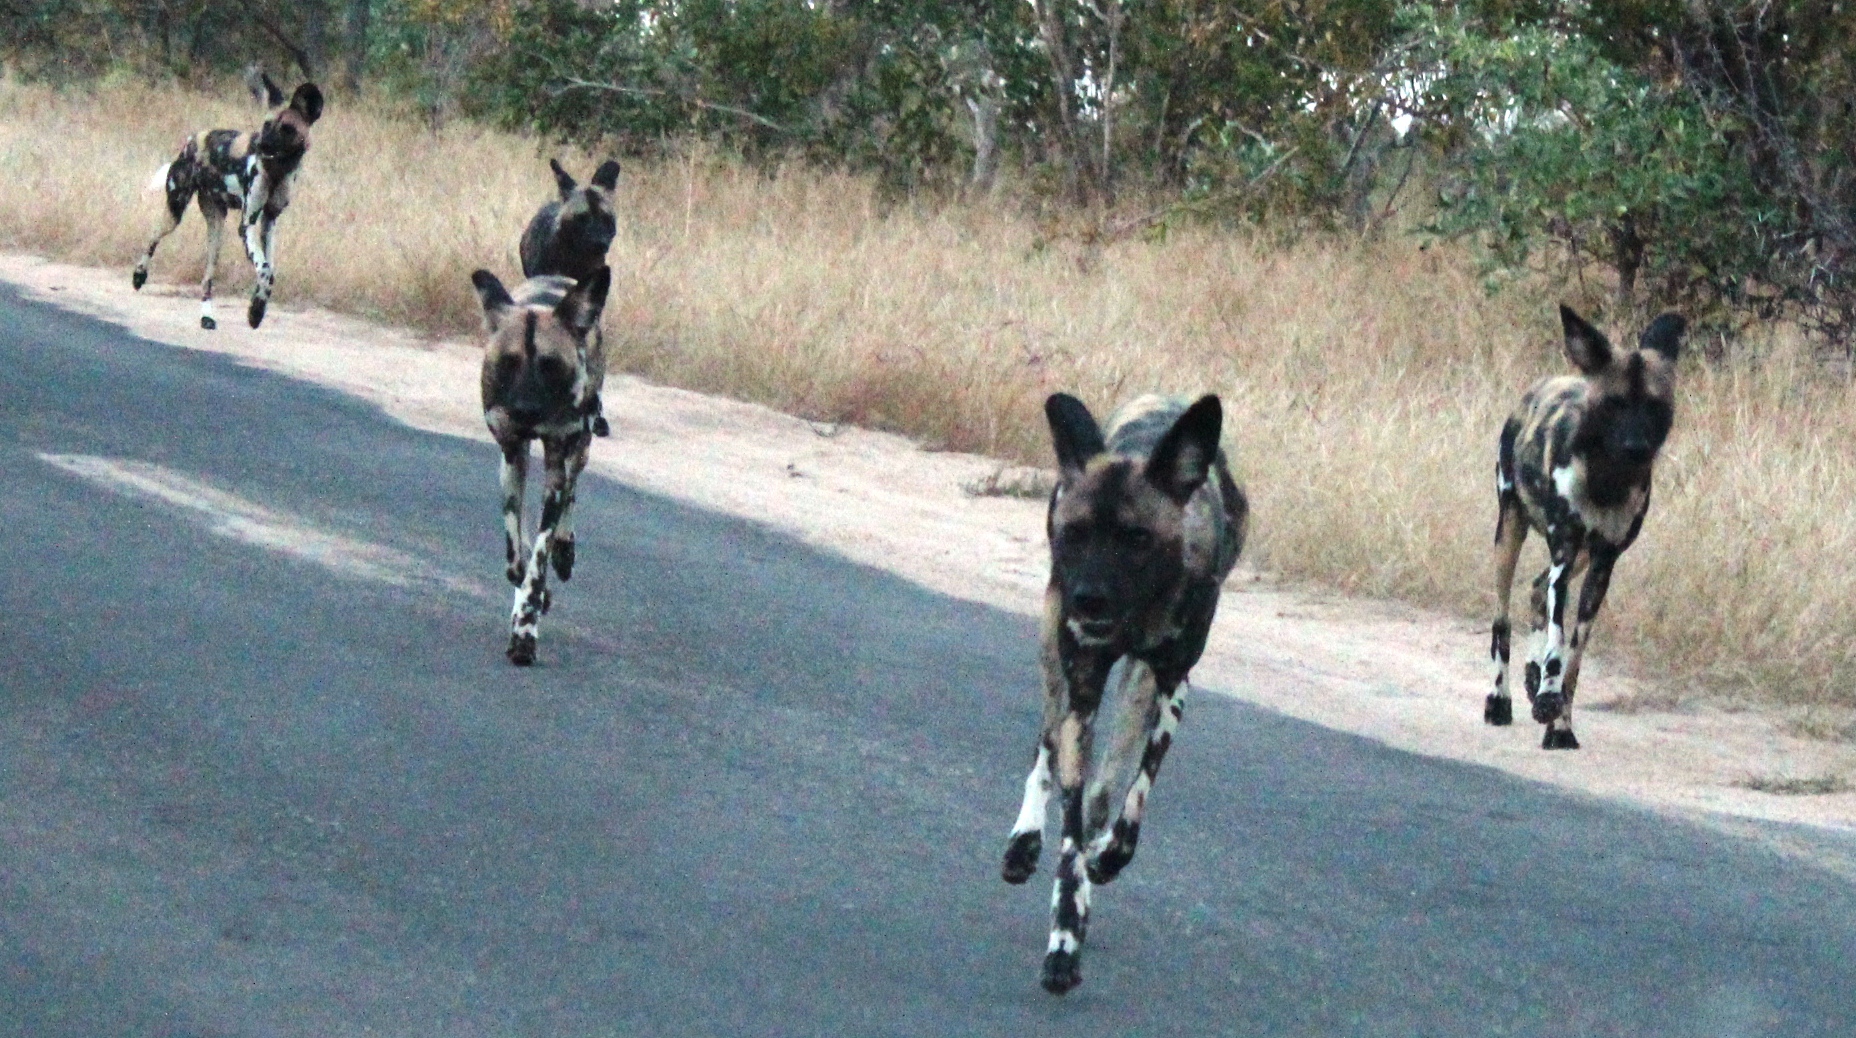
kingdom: Animalia
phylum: Chordata
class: Mammalia
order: Carnivora
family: Canidae
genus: Lycaon
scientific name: Lycaon pictus
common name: African wild dog
